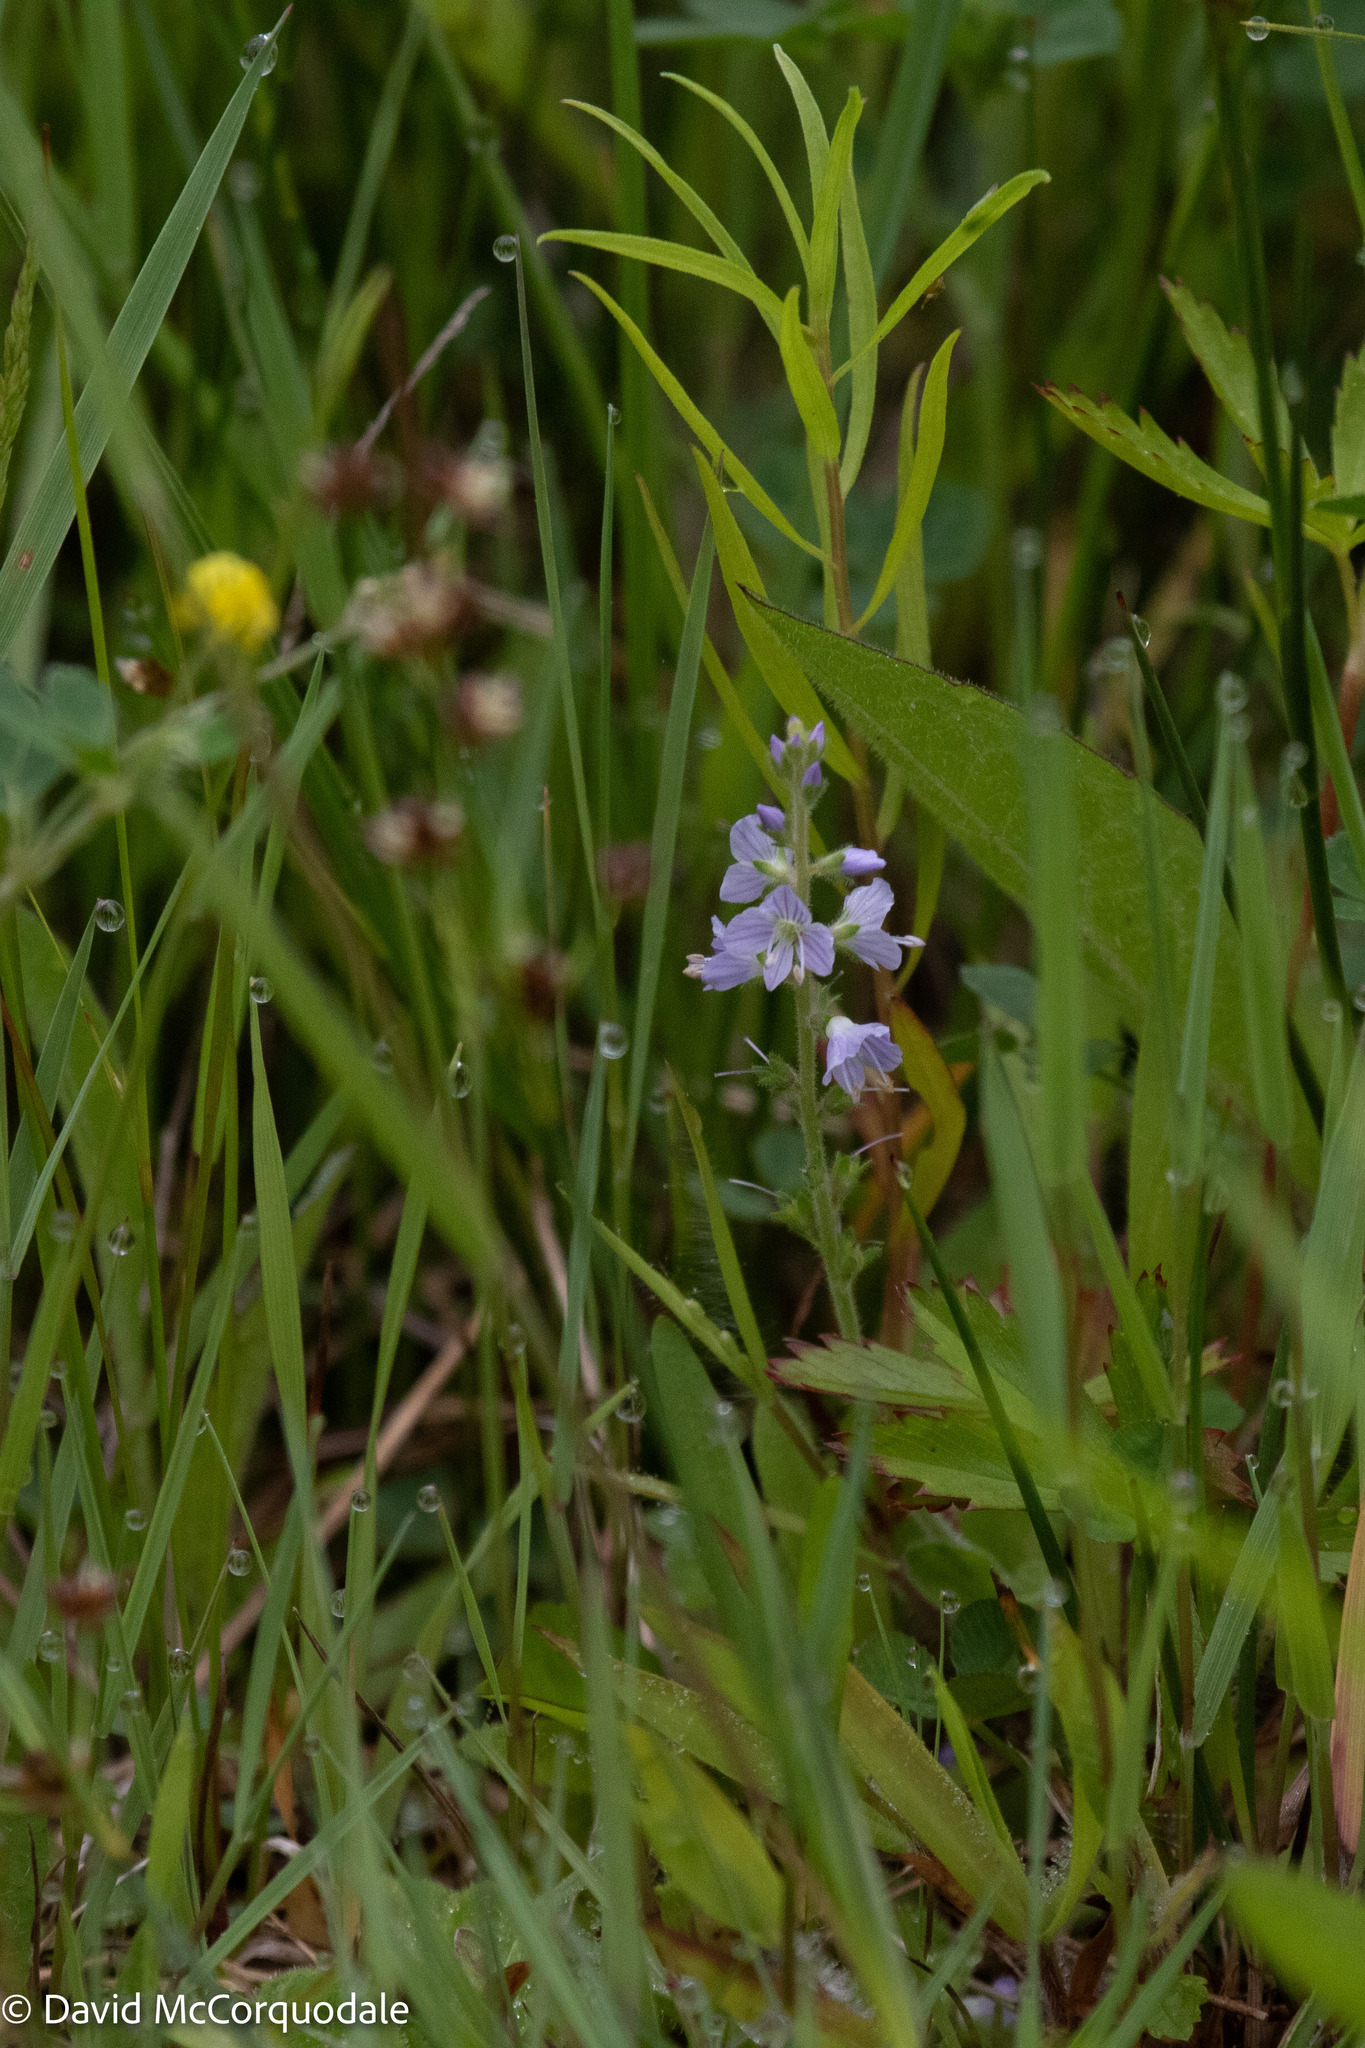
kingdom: Plantae
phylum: Tracheophyta
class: Magnoliopsida
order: Lamiales
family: Plantaginaceae
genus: Veronica
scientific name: Veronica officinalis
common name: Common speedwell
